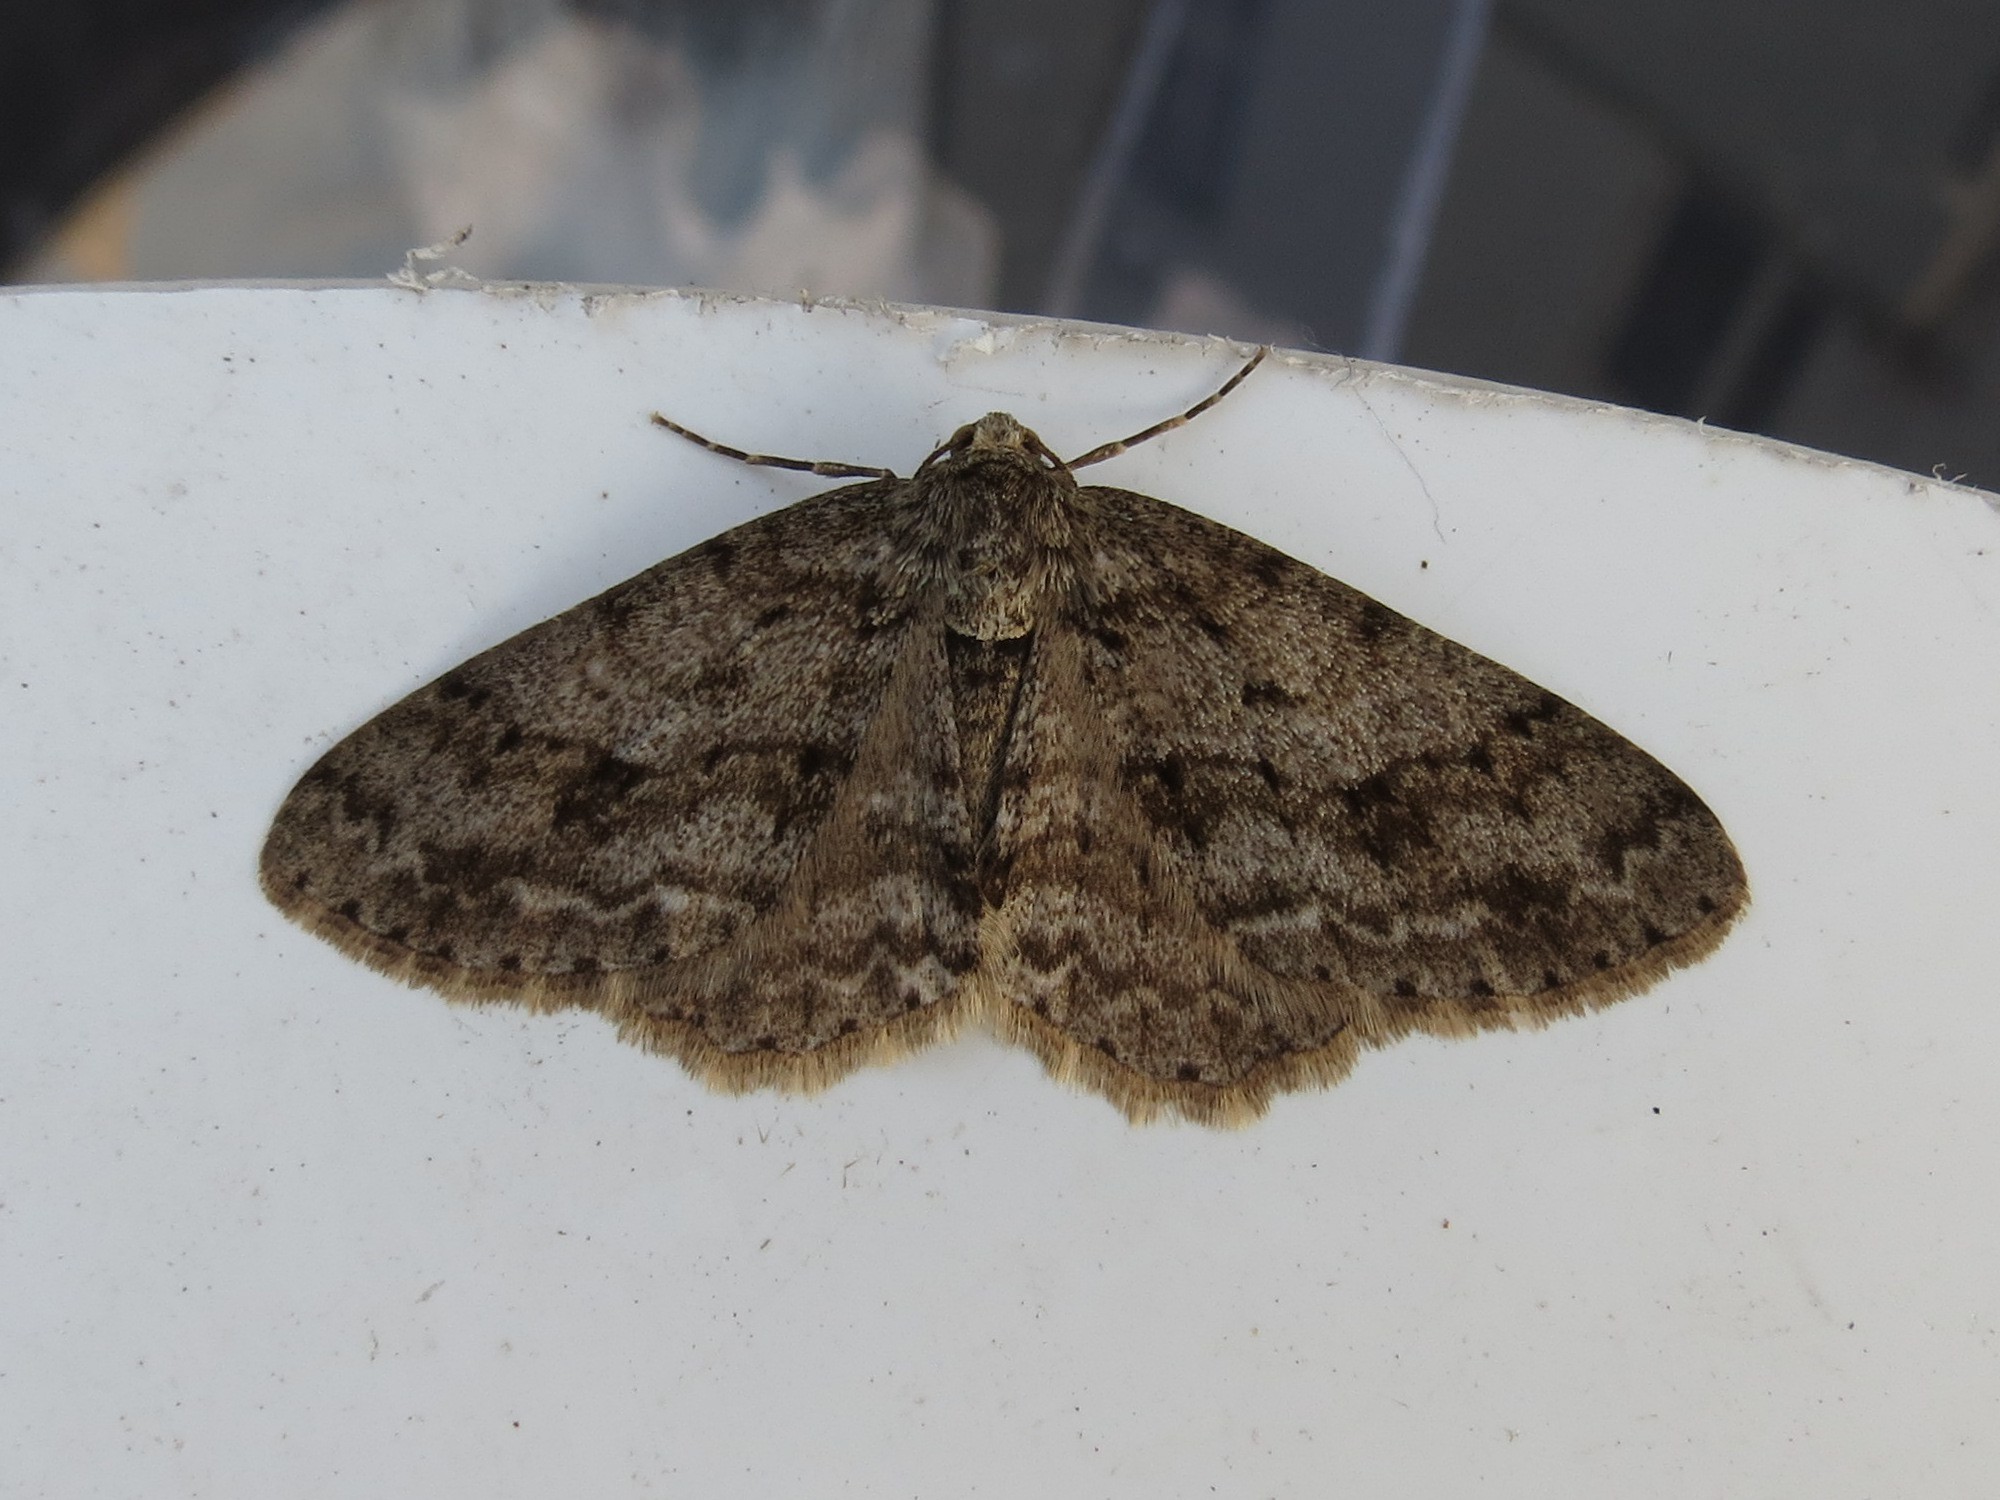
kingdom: Animalia
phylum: Arthropoda
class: Insecta
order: Lepidoptera
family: Geometridae
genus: Ectropis
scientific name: Ectropis crepuscularia
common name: Engrailed
